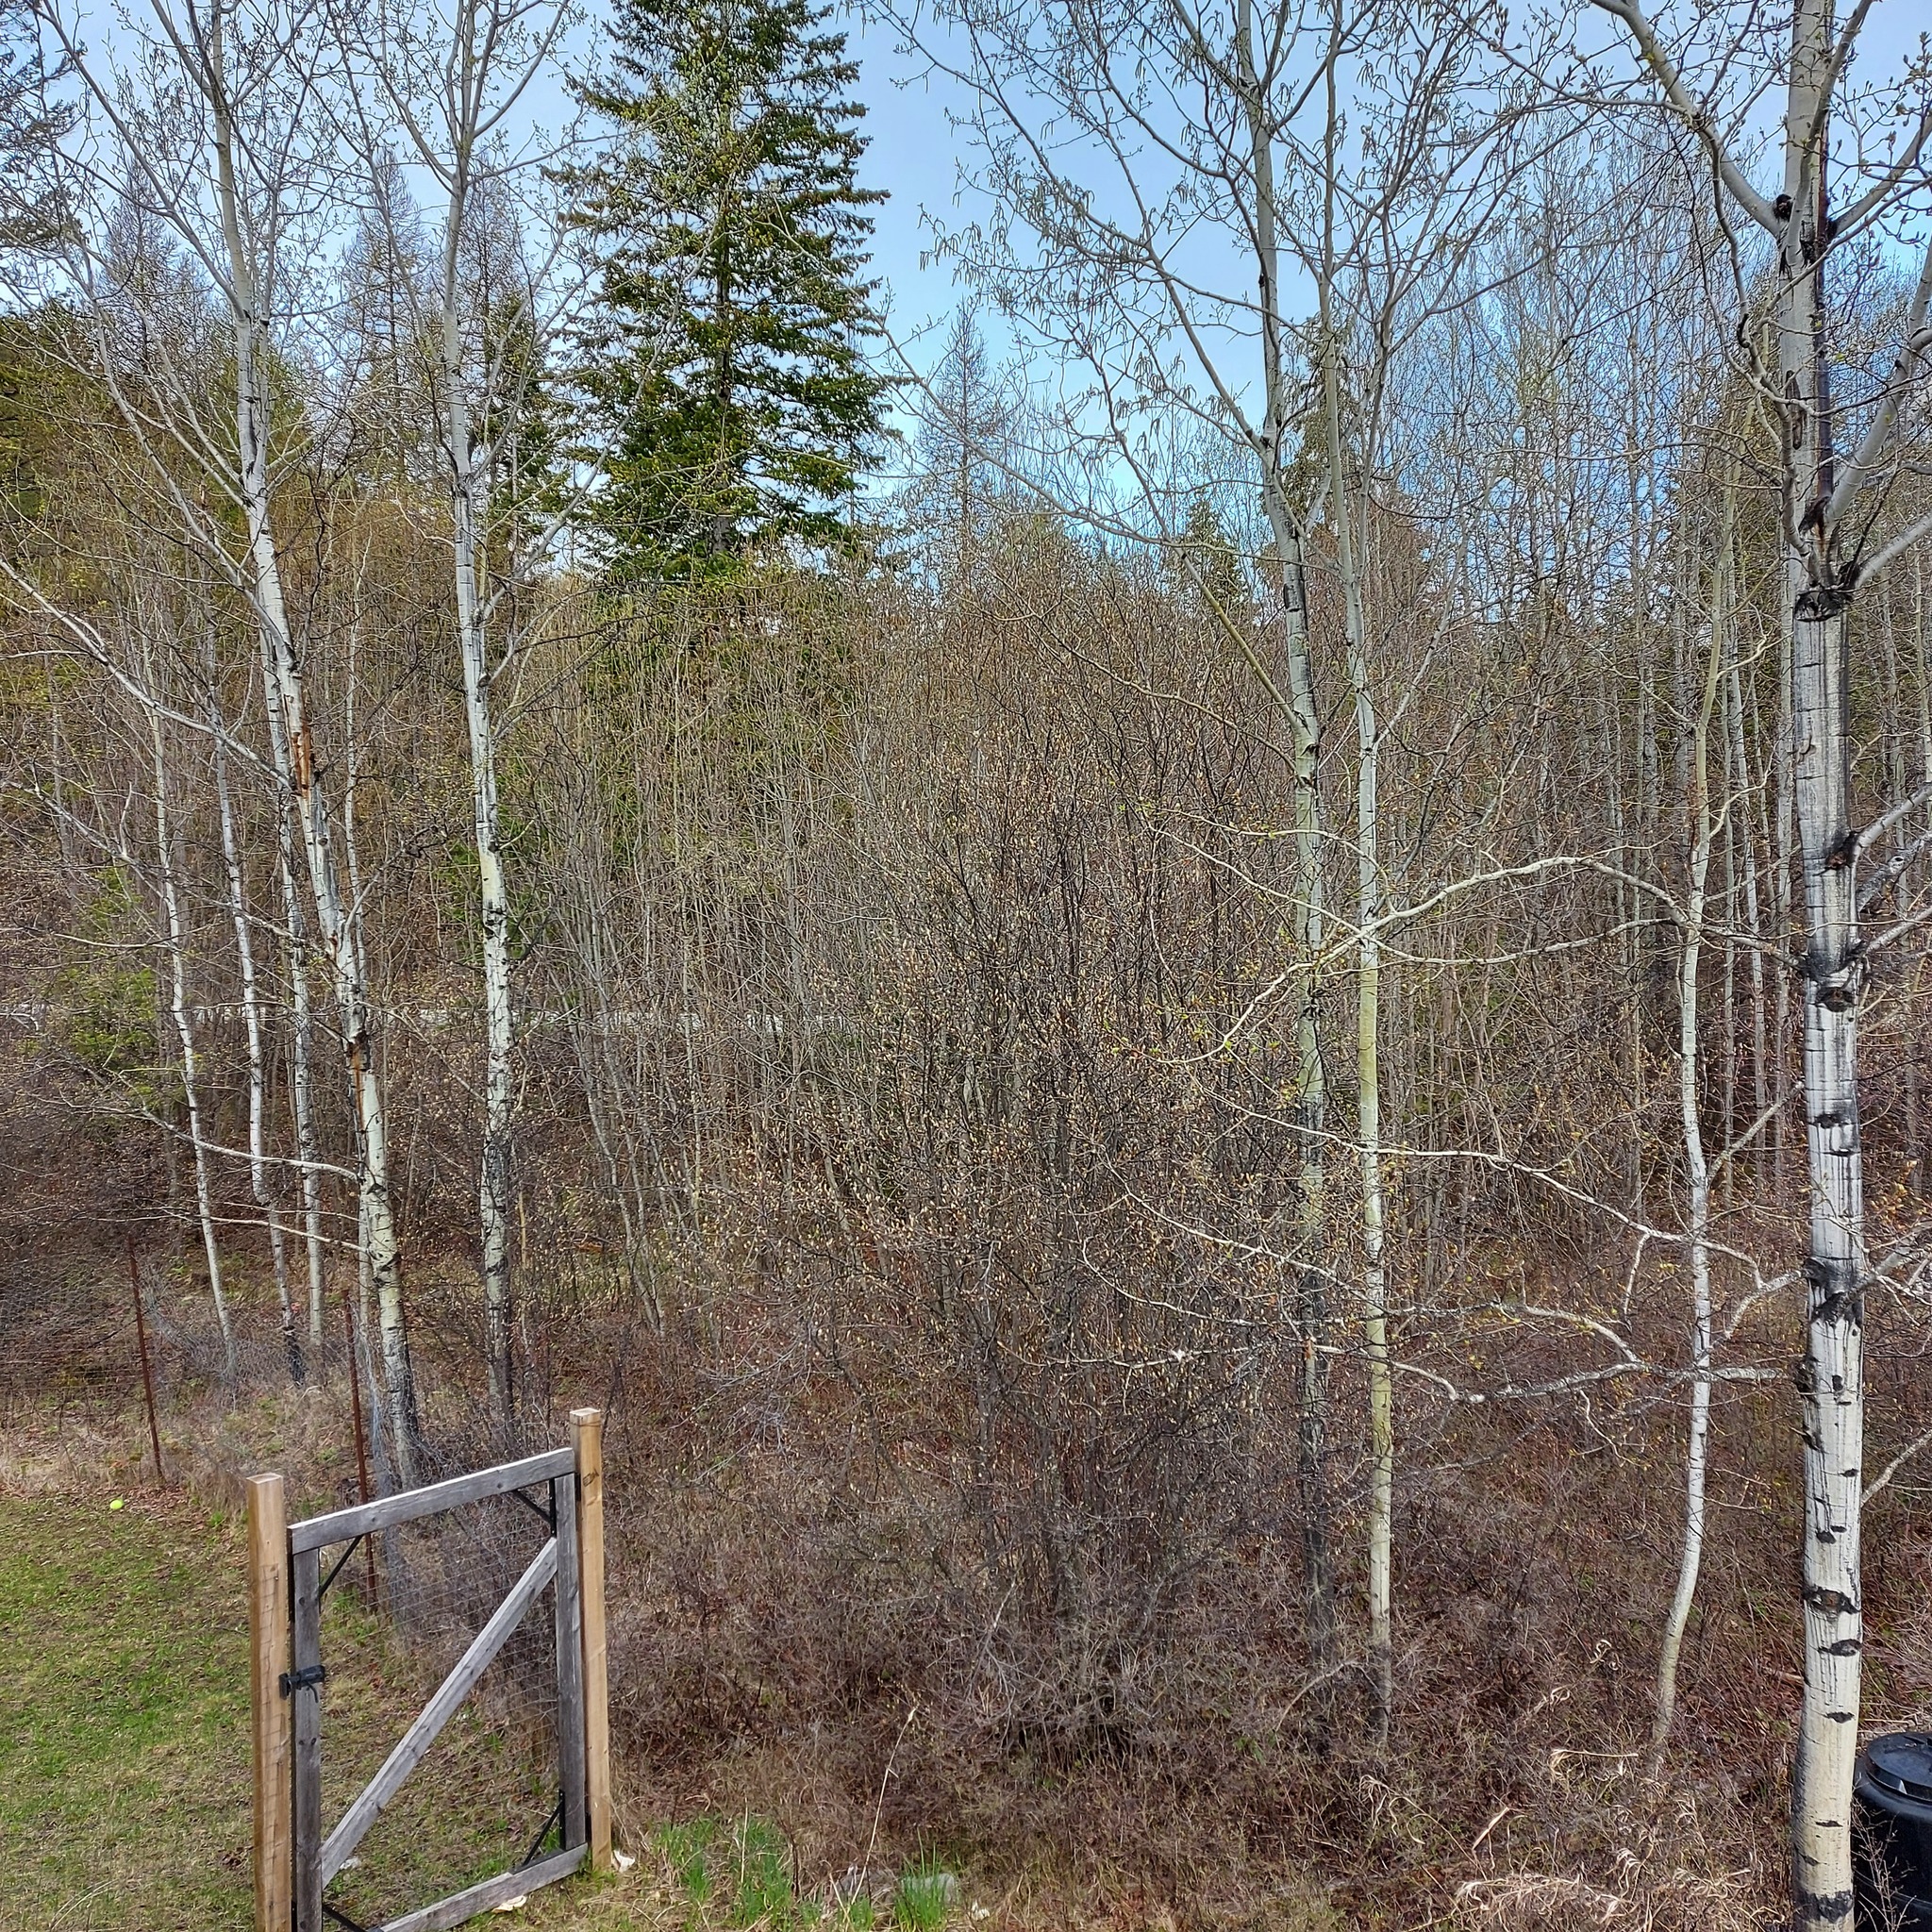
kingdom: Animalia
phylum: Chordata
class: Aves
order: Passeriformes
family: Parulidae
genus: Leiothlypis
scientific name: Leiothlypis ruficapilla
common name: Nashville warbler
